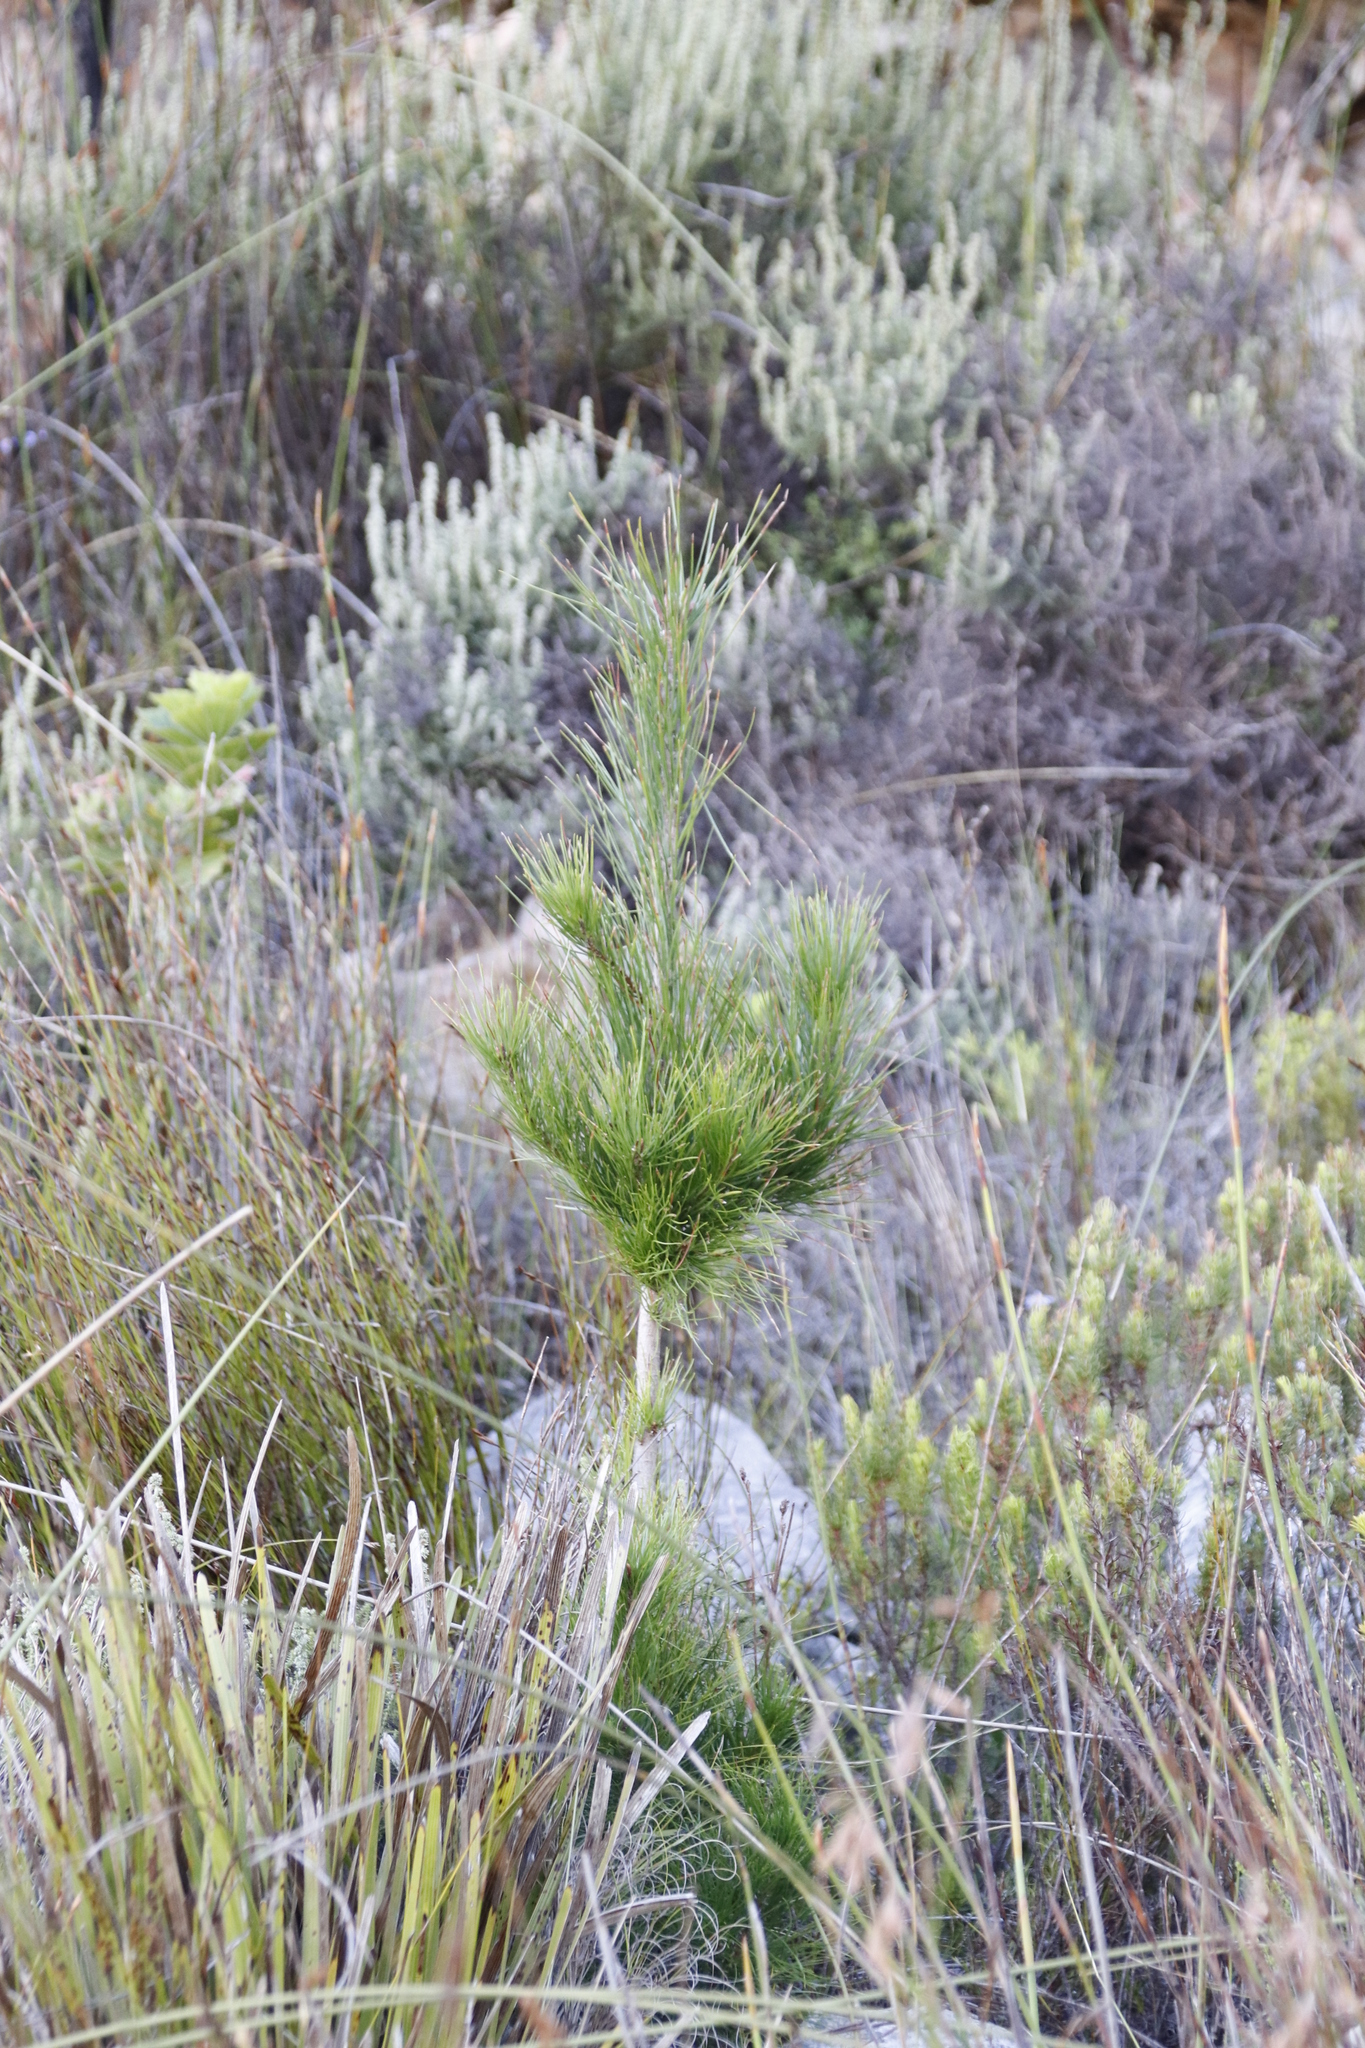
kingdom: Plantae
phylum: Tracheophyta
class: Pinopsida
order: Pinales
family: Pinaceae
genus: Pinus
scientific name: Pinus radiata
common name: Monterey pine
